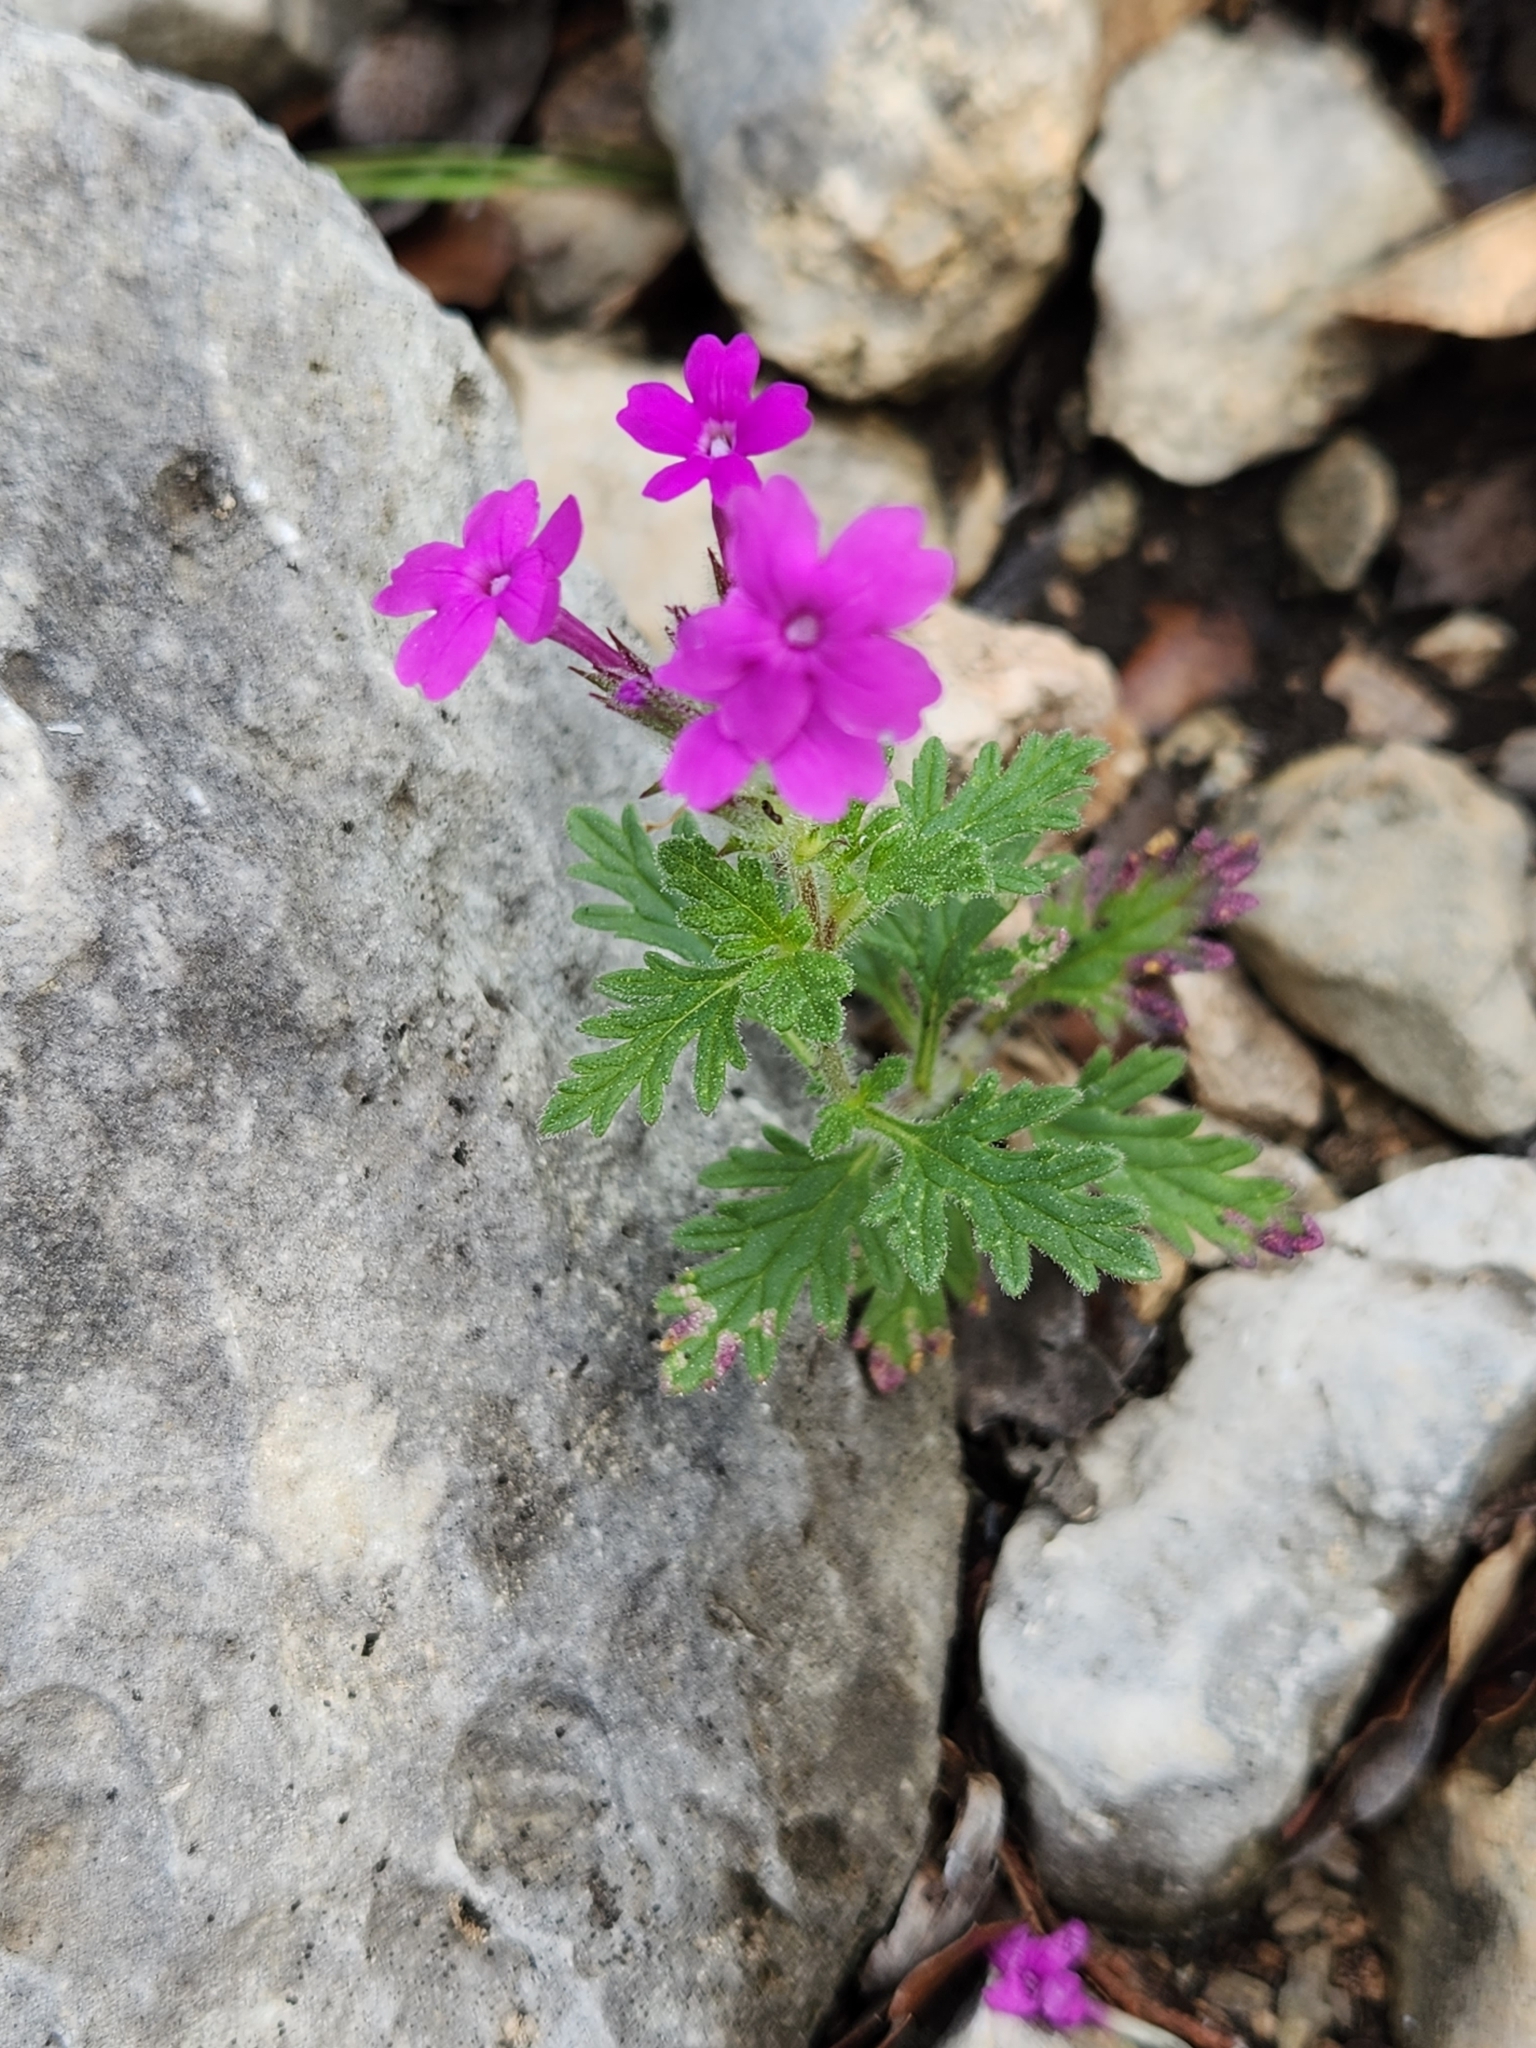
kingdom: Plantae
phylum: Tracheophyta
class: Magnoliopsida
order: Lamiales
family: Verbenaceae
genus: Verbena
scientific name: Verbena pumila
